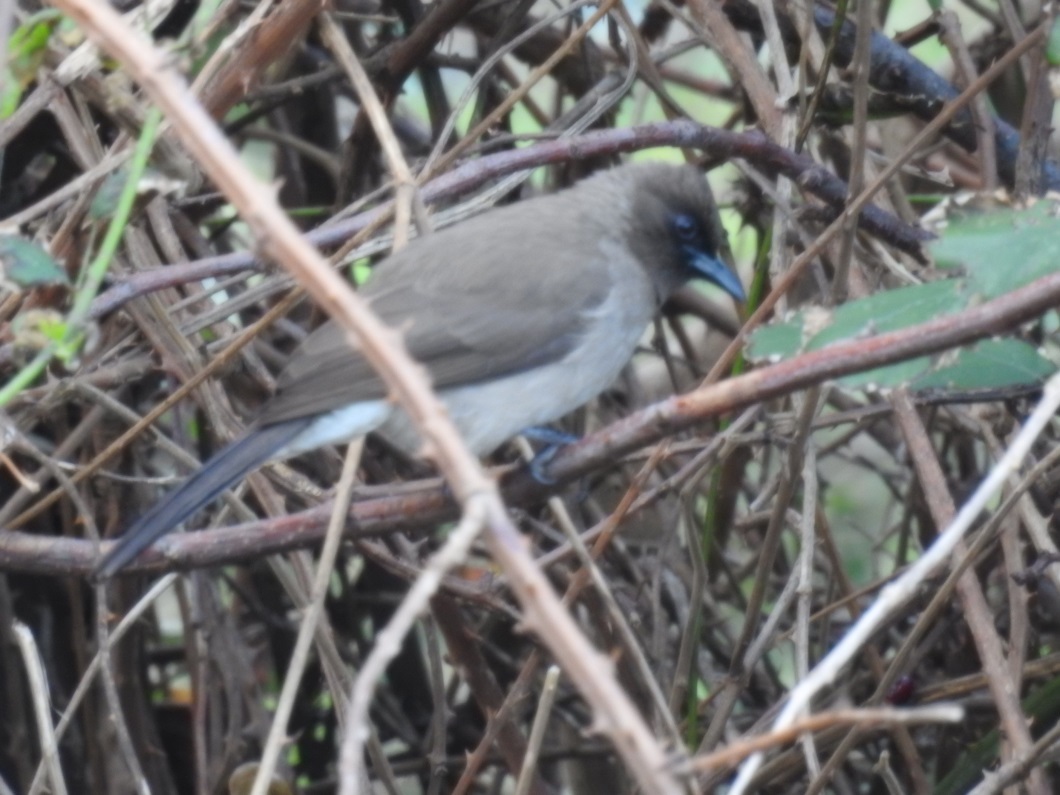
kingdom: Animalia
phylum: Chordata
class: Aves
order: Passeriformes
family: Pycnonotidae
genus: Pycnonotus
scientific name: Pycnonotus barbatus
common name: Common bulbul
